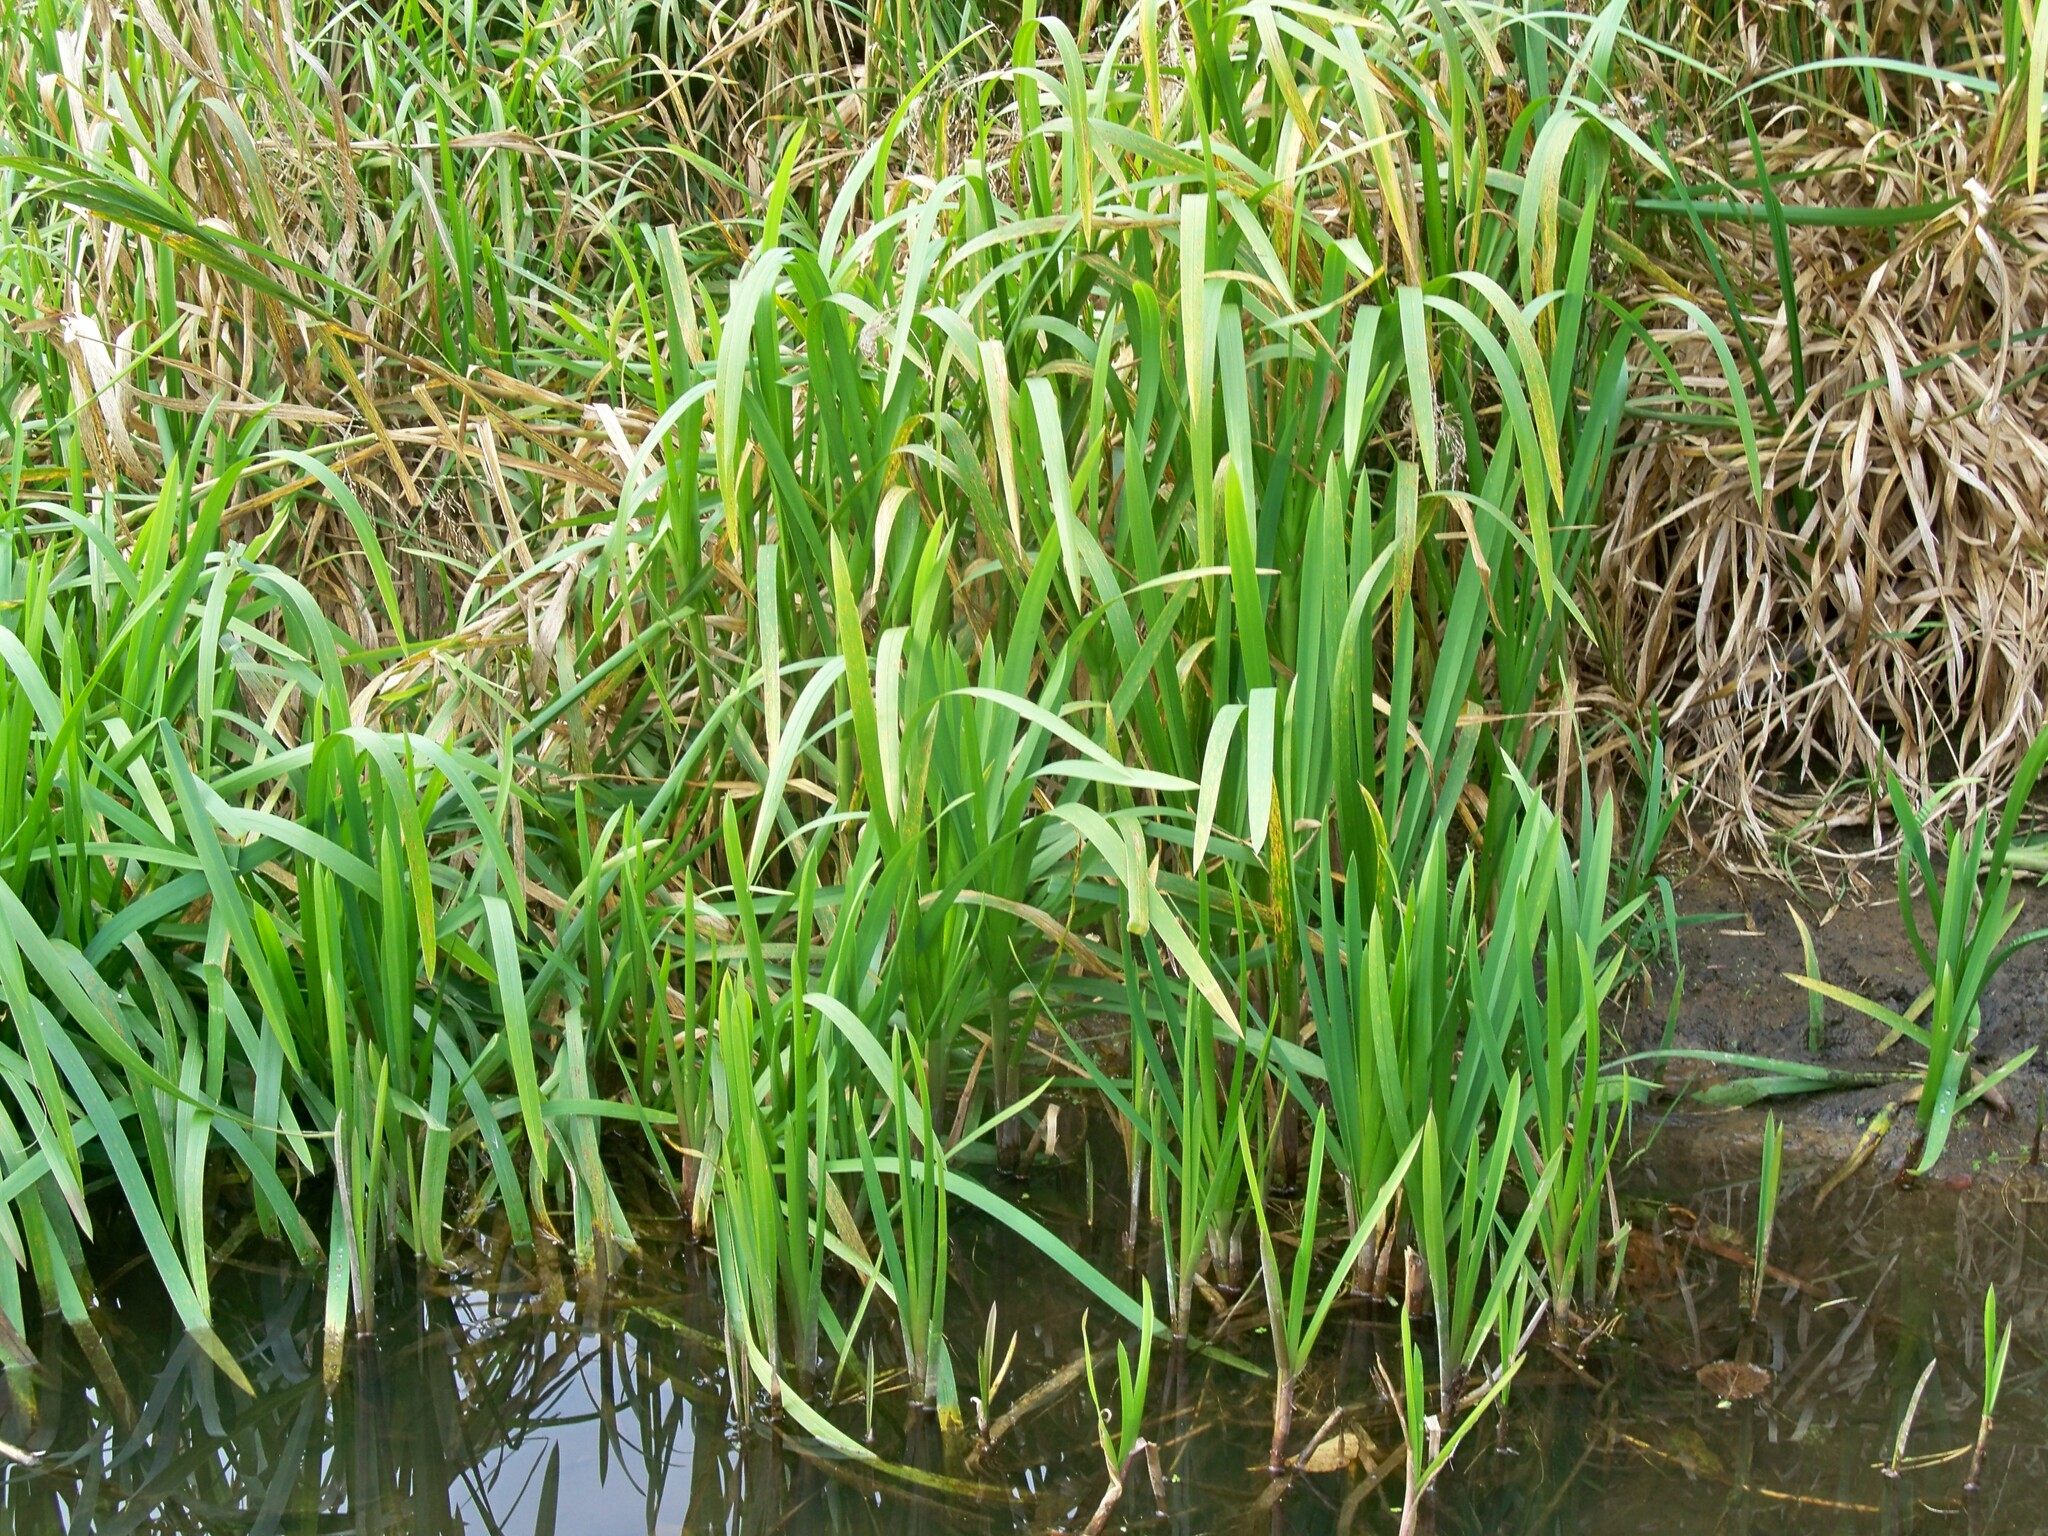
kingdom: Plantae
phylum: Tracheophyta
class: Liliopsida
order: Poales
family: Poaceae
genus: Glyceria
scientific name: Glyceria maxima
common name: Reed mannagrass
